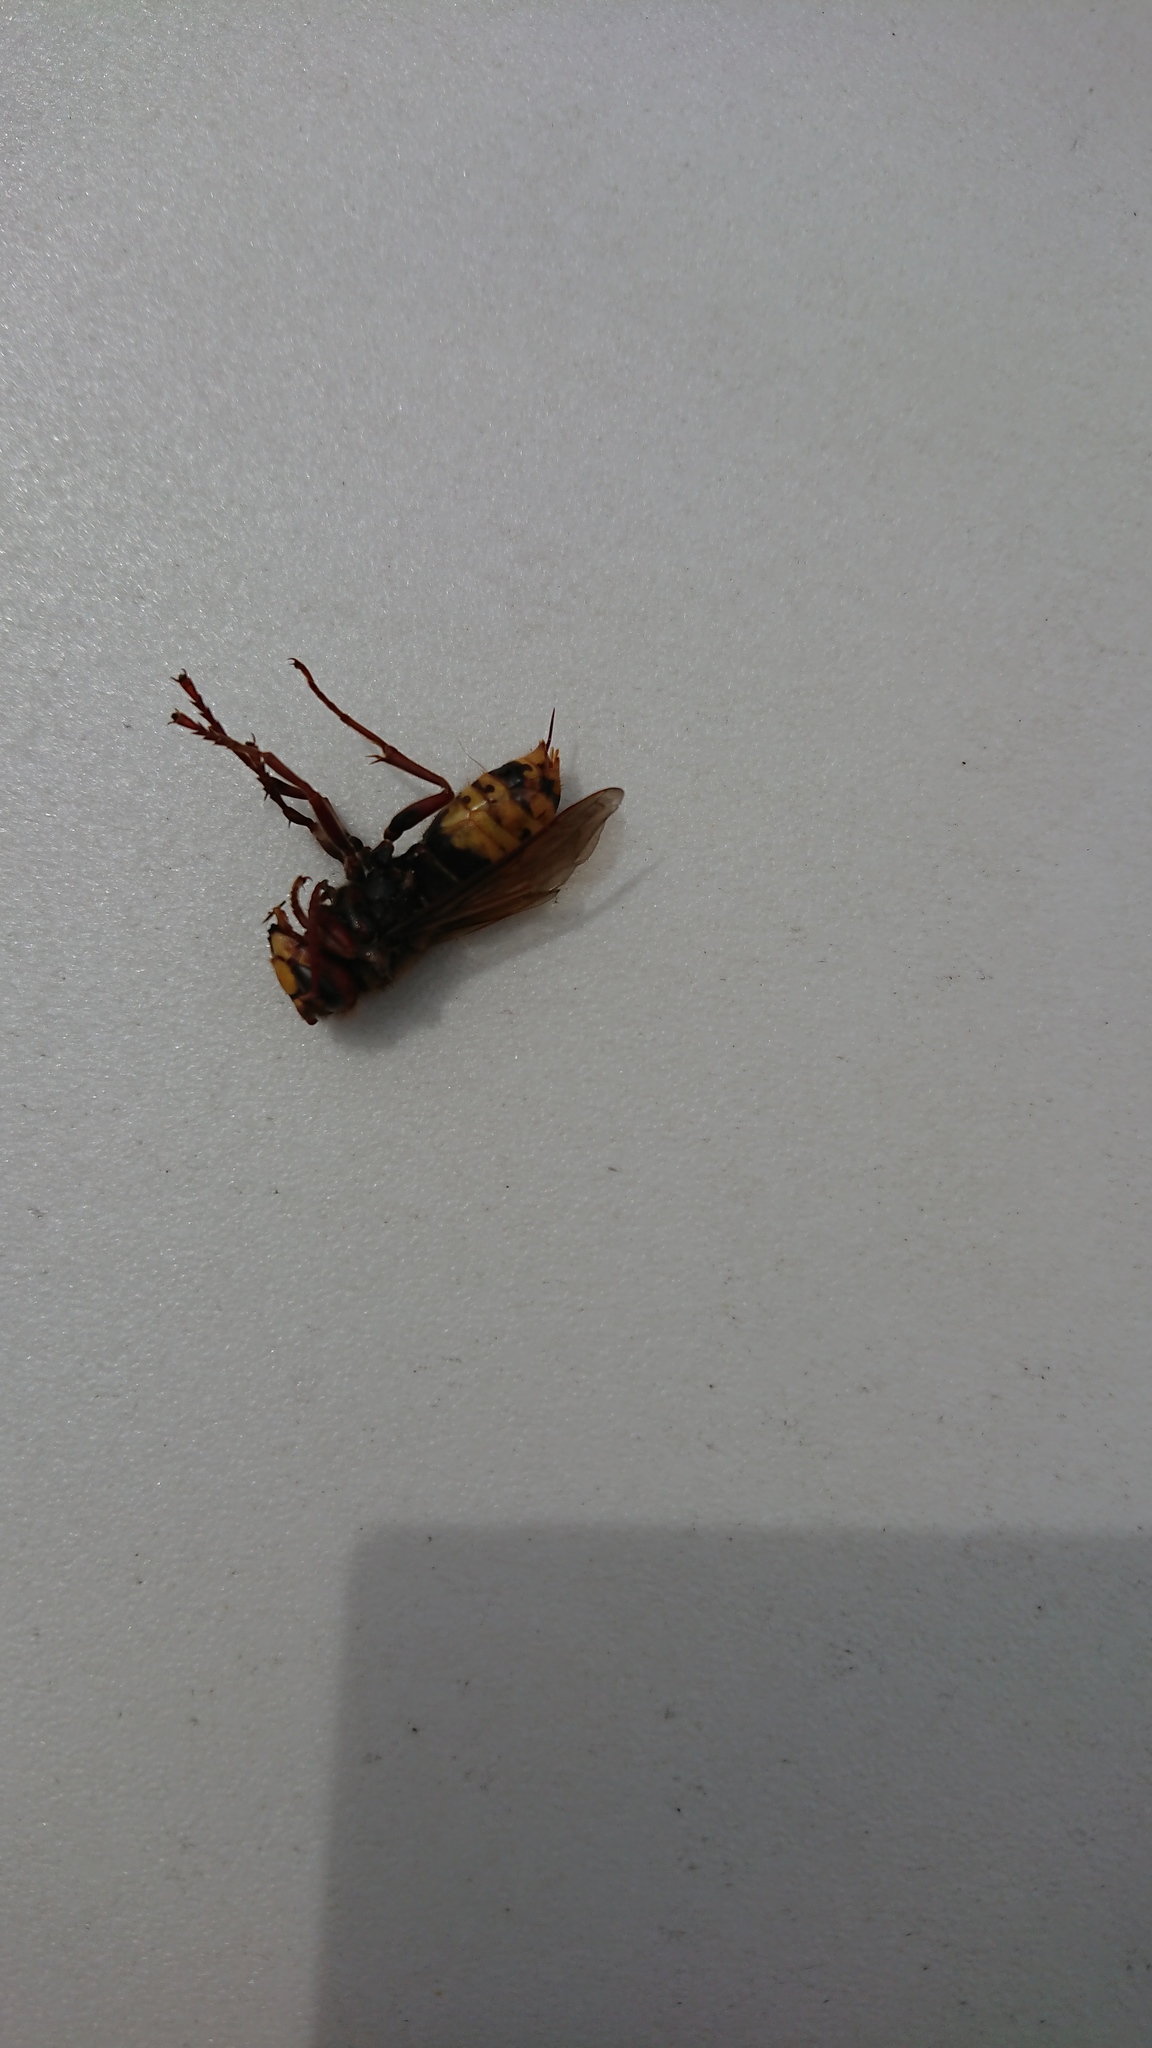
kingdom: Animalia
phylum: Arthropoda
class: Insecta
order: Hymenoptera
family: Vespidae
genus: Vespa
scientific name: Vespa crabro
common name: Hornet
